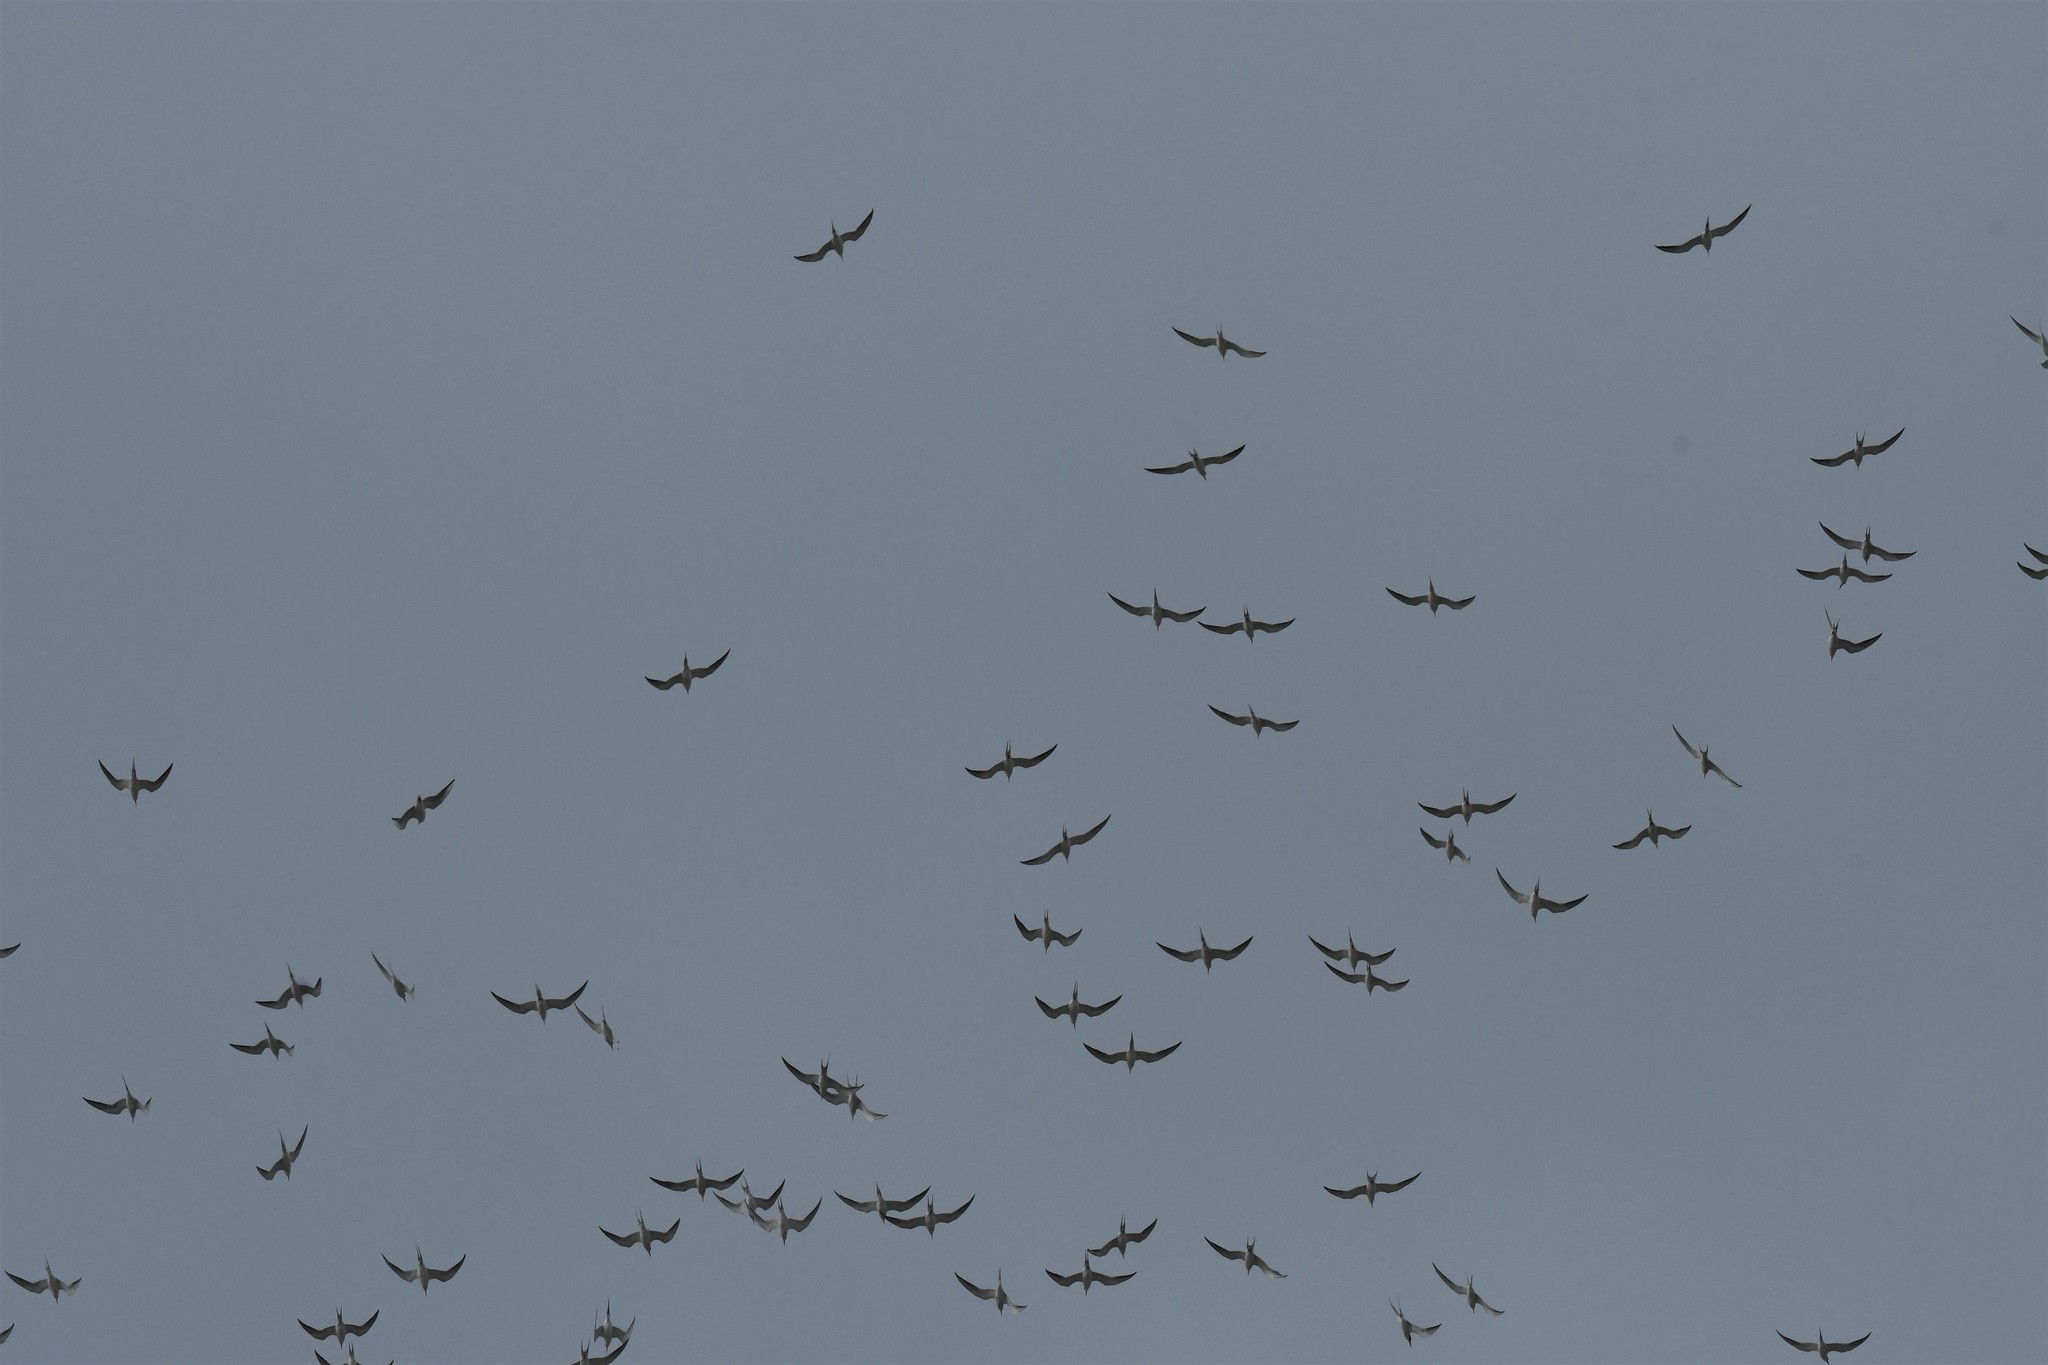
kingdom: Animalia
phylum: Chordata
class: Aves
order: Charadriiformes
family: Laridae
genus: Sterna
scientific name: Sterna forsteri
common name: Forster's tern
